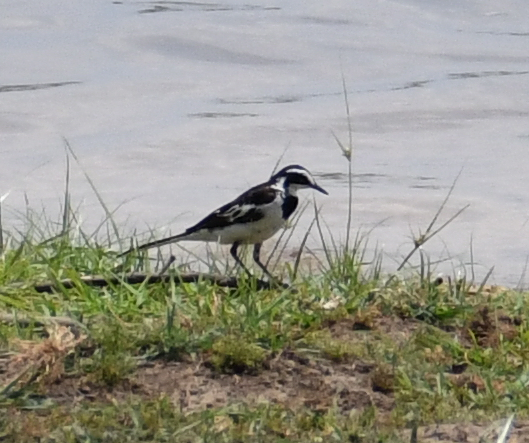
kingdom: Animalia
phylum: Chordata
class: Aves
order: Passeriformes
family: Motacillidae
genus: Motacilla
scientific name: Motacilla aguimp
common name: African pied wagtail
